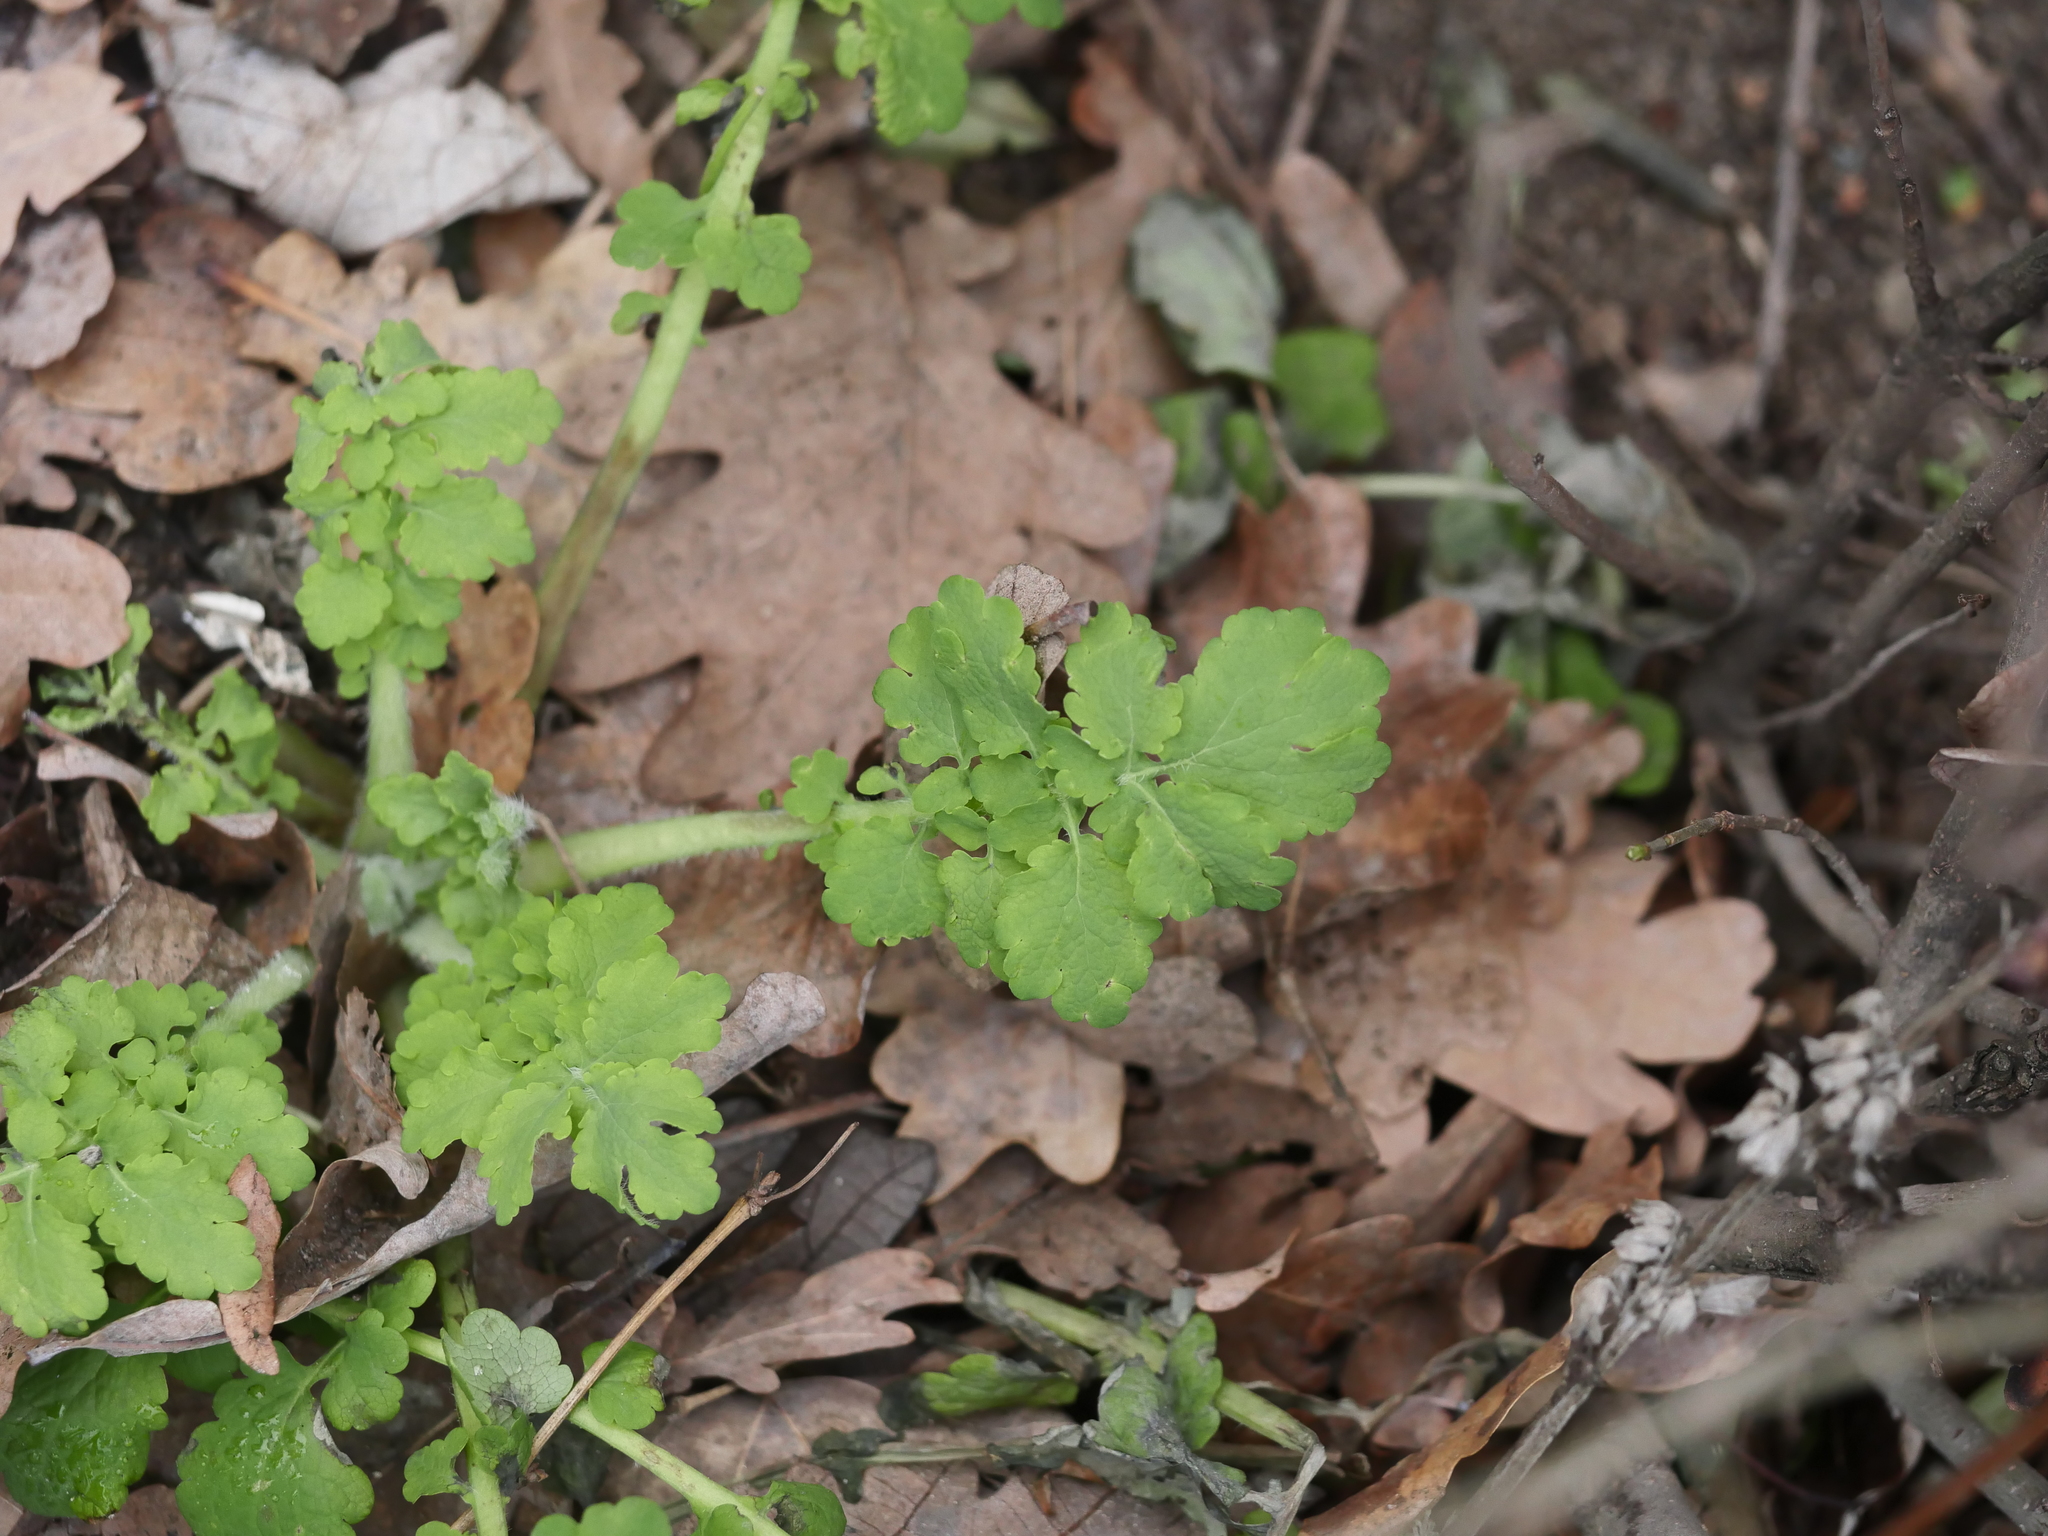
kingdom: Plantae
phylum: Tracheophyta
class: Magnoliopsida
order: Ranunculales
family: Papaveraceae
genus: Chelidonium
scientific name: Chelidonium majus
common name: Greater celandine
